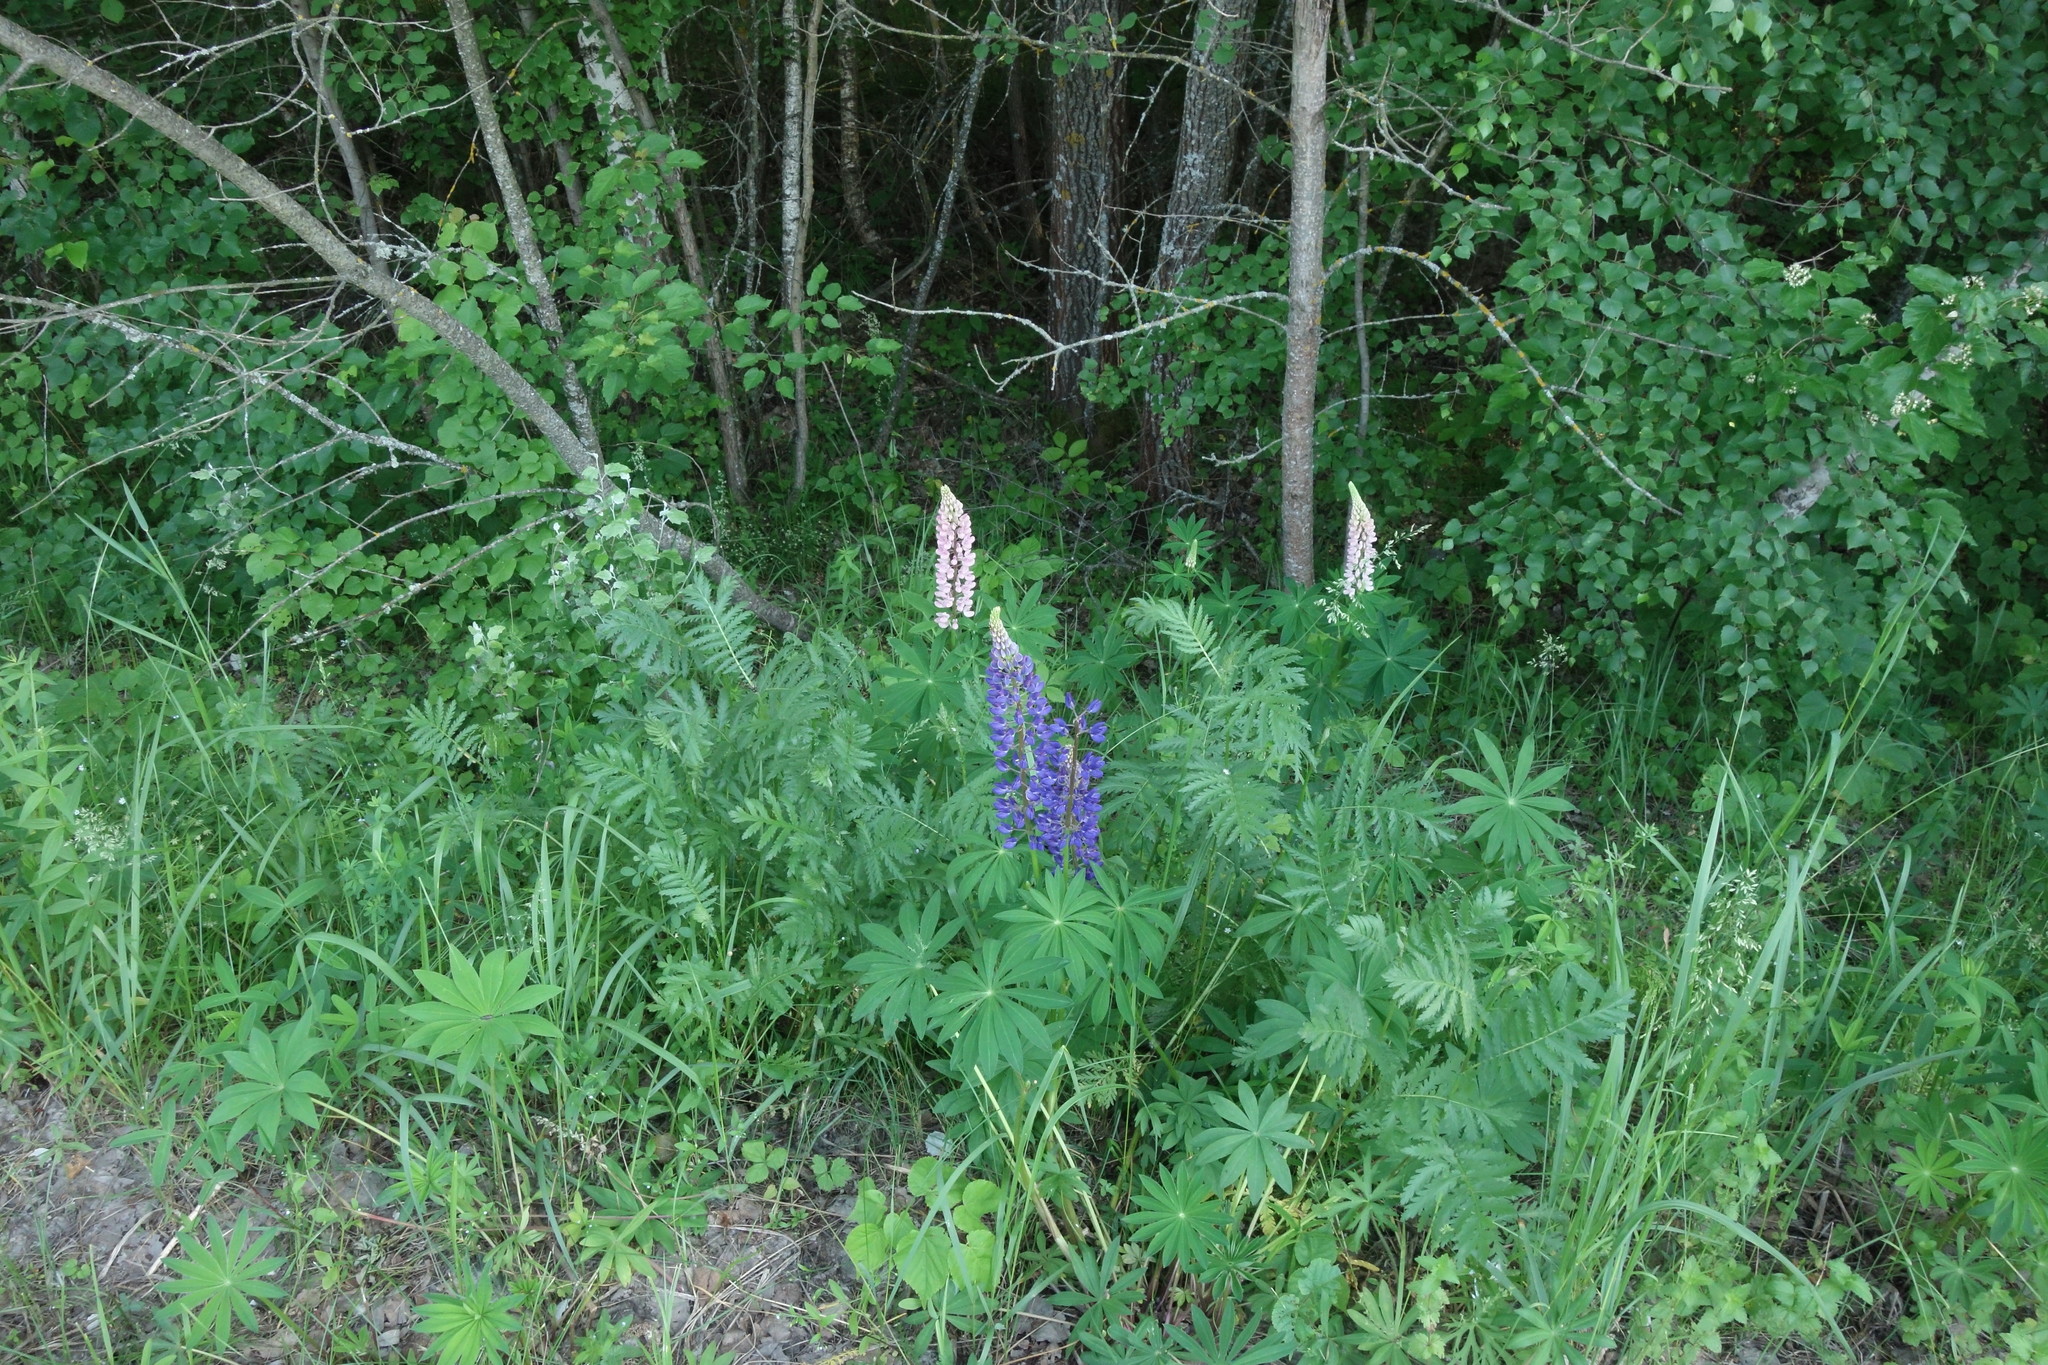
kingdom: Plantae
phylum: Tracheophyta
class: Magnoliopsida
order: Fabales
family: Fabaceae
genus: Lupinus
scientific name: Lupinus polyphyllus
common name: Garden lupin
